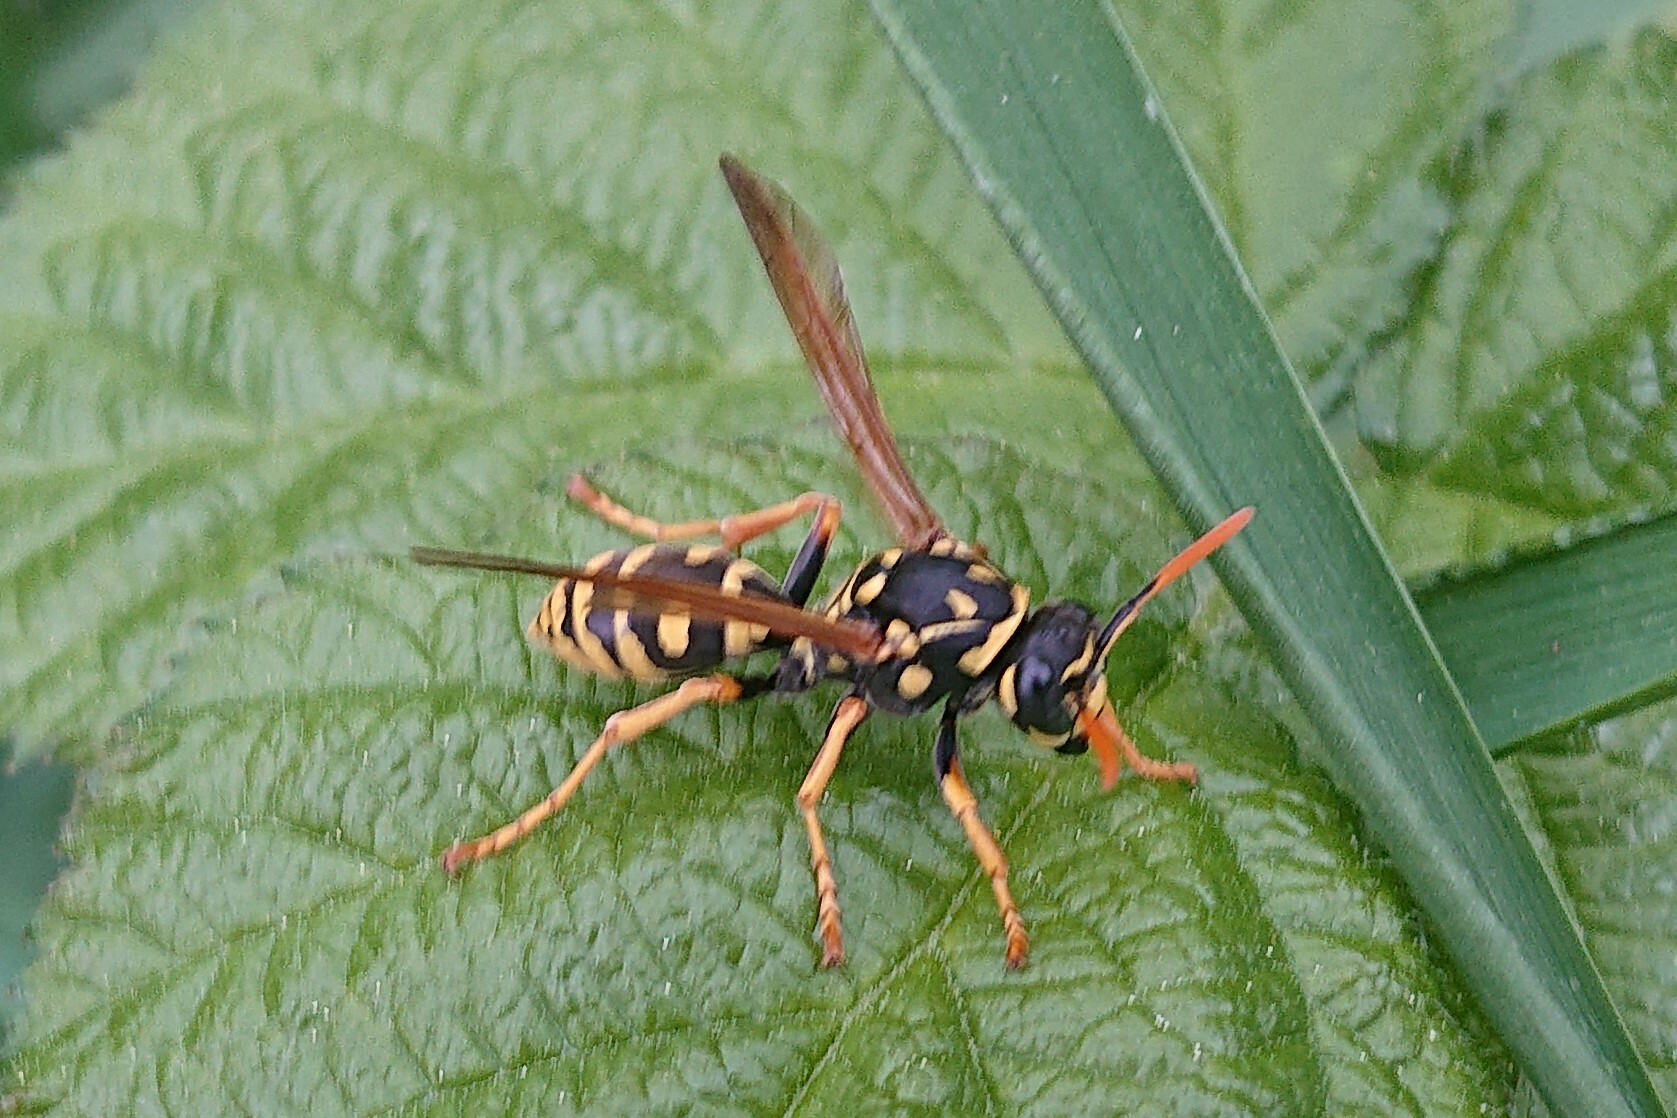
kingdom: Animalia
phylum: Arthropoda
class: Insecta
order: Hymenoptera
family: Eumenidae
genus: Polistes
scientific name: Polistes dominula
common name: Paper wasp
